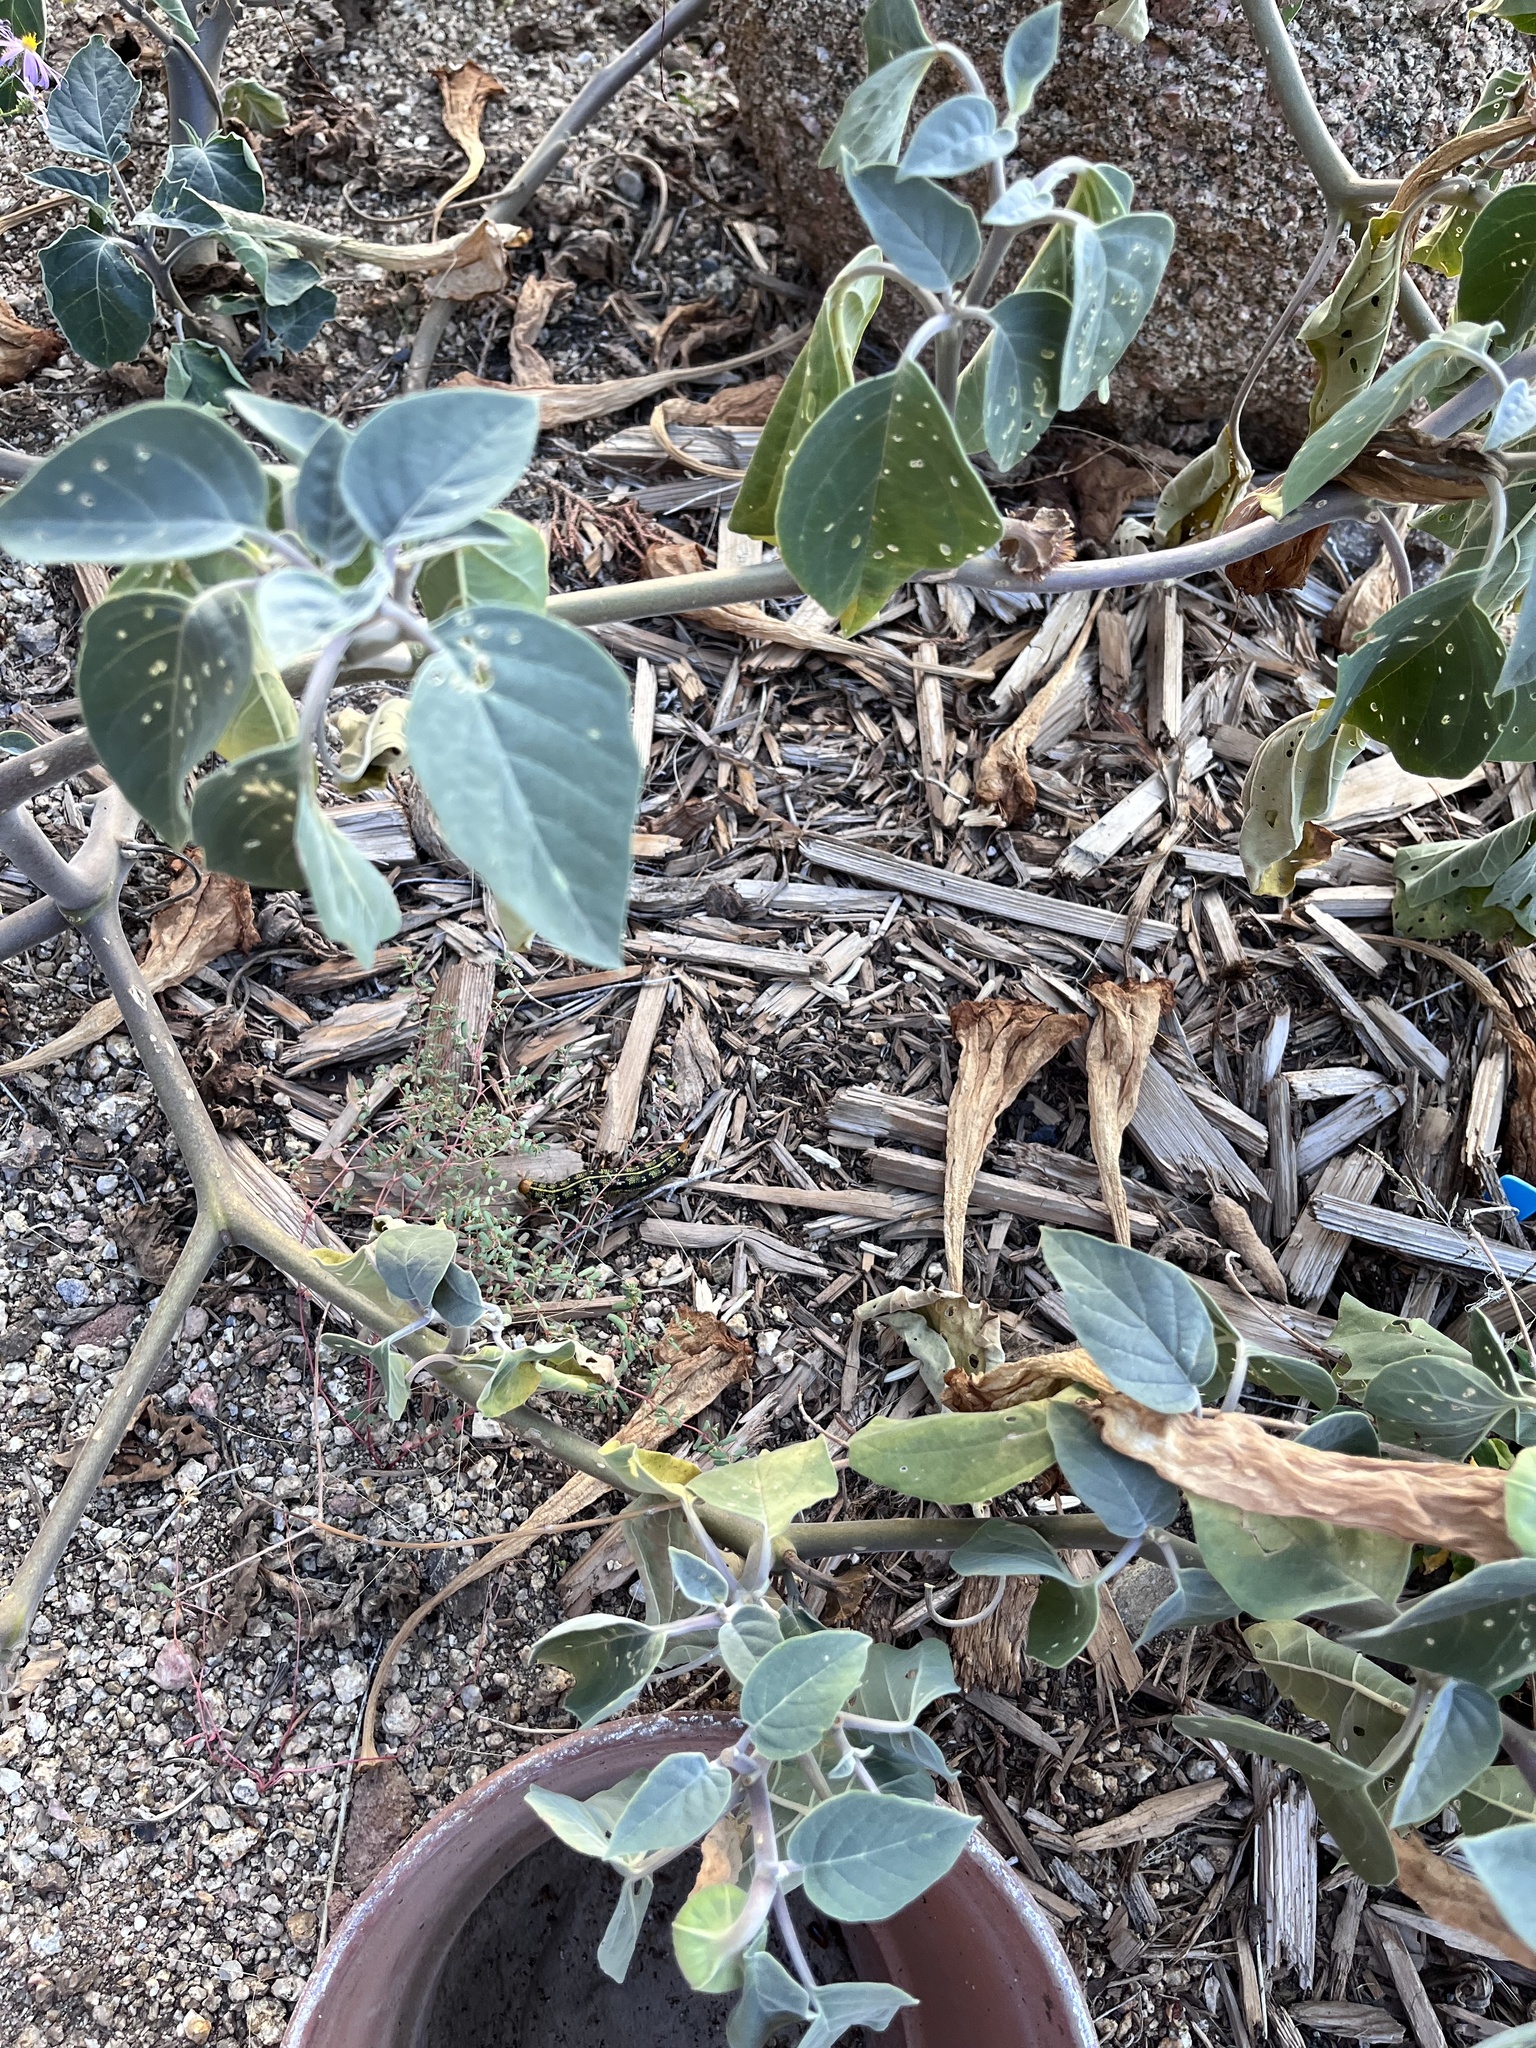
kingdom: Plantae
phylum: Tracheophyta
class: Magnoliopsida
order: Solanales
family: Solanaceae
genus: Datura
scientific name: Datura wrightii
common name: Sacred thorn-apple
